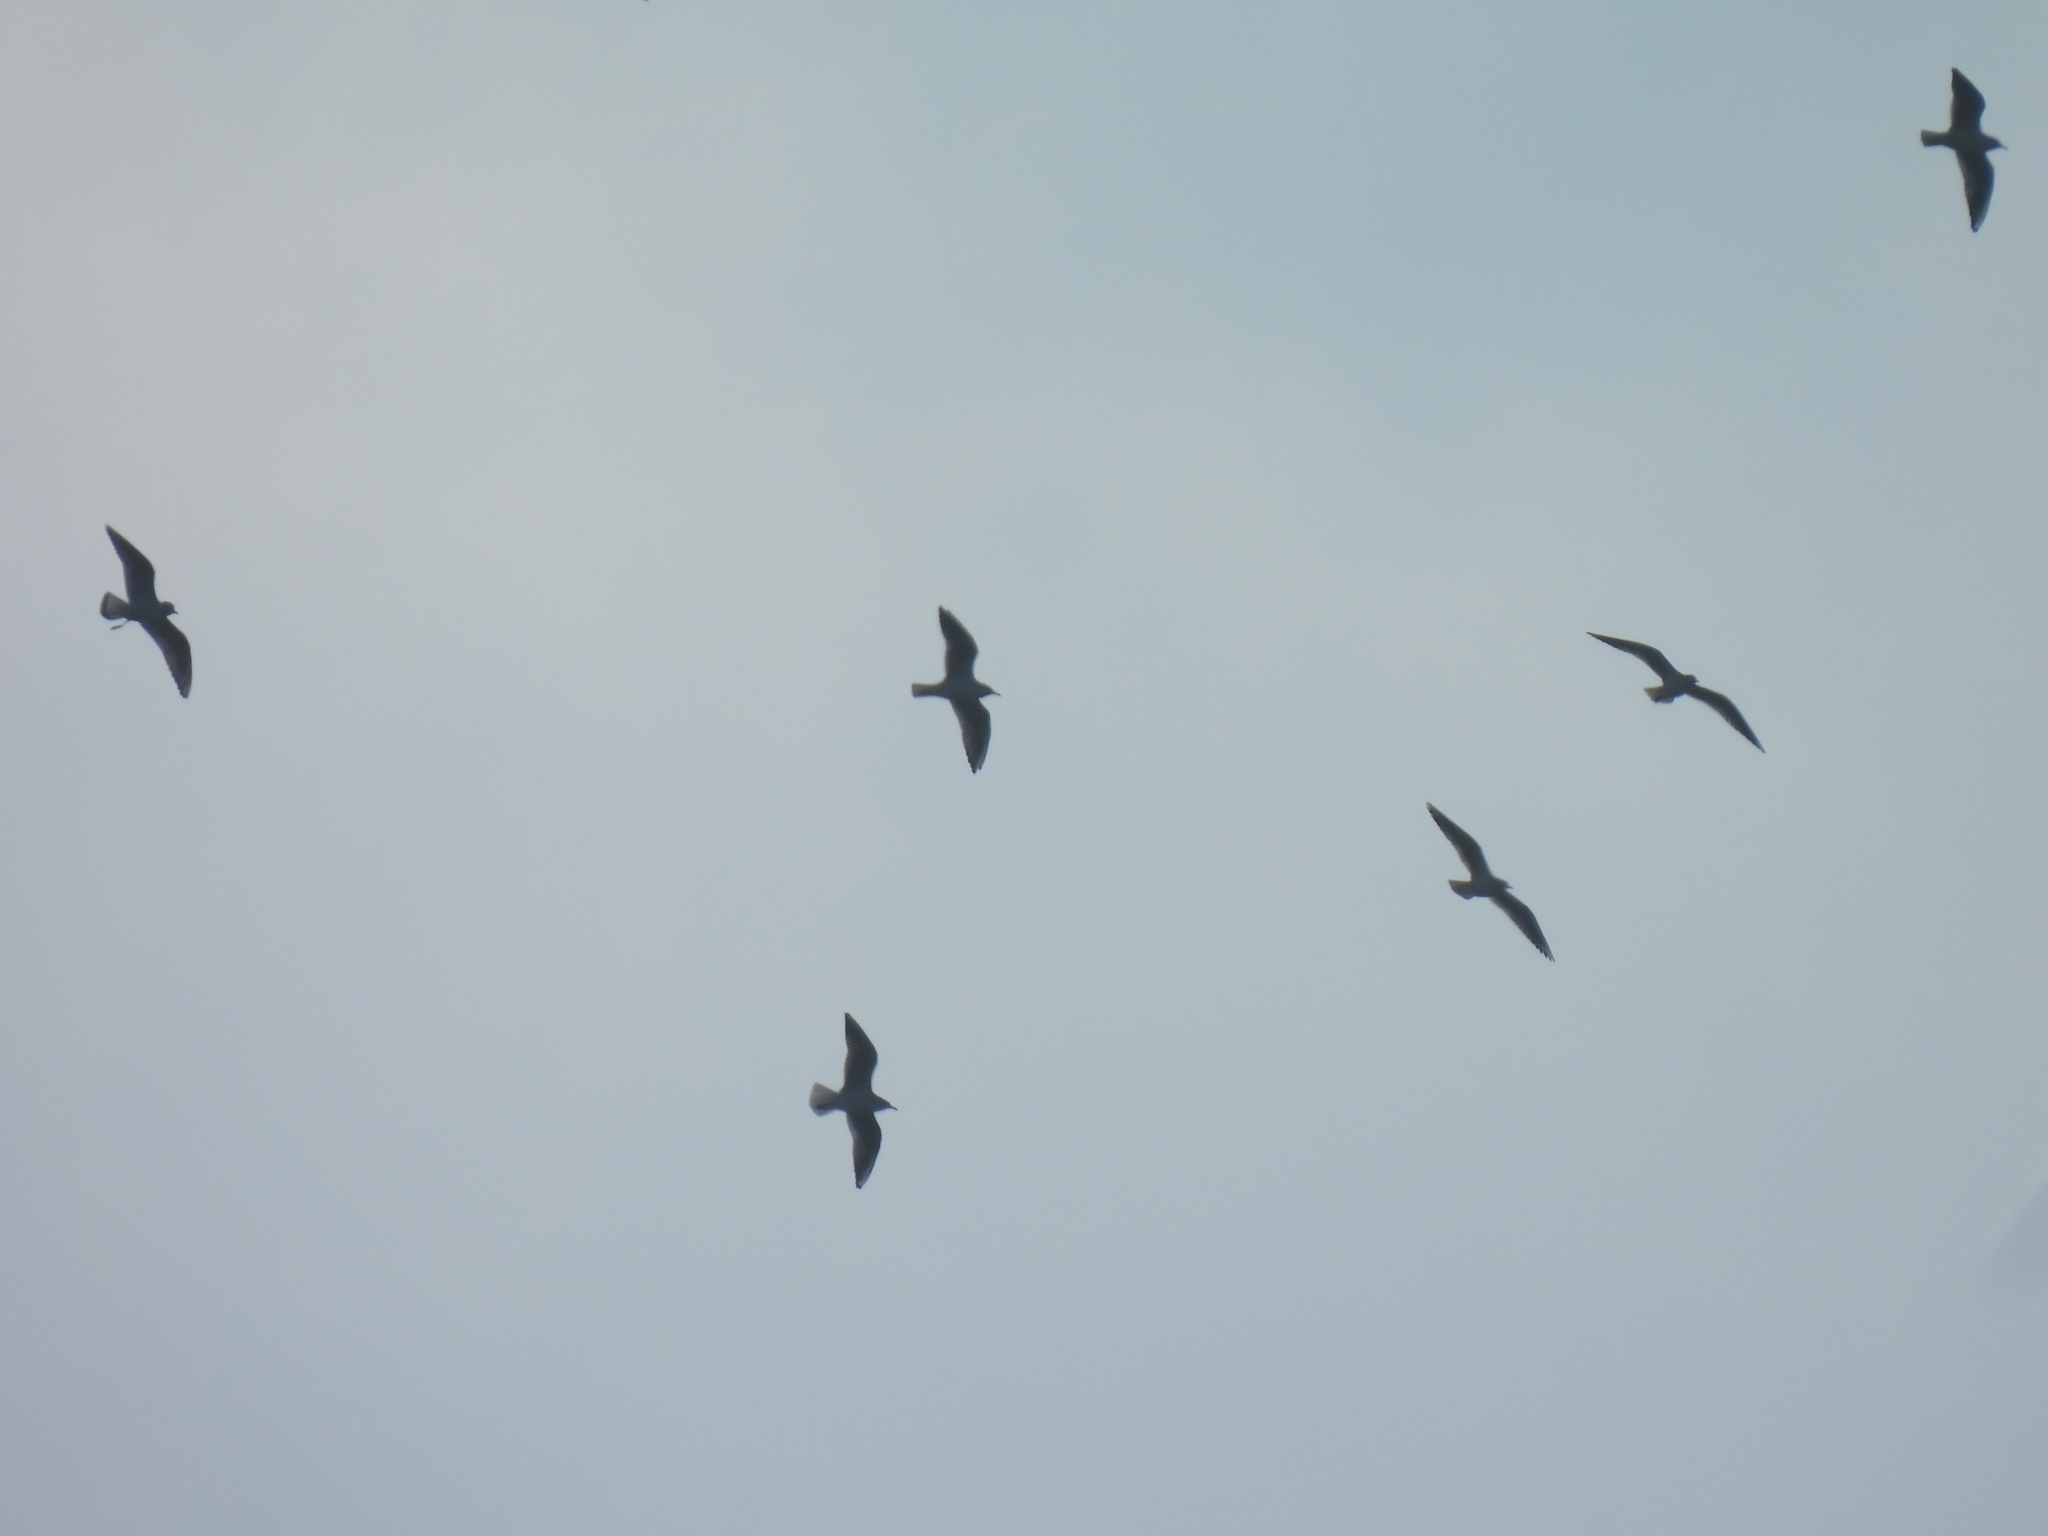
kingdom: Animalia
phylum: Chordata
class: Aves
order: Charadriiformes
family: Laridae
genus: Chroicocephalus
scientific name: Chroicocephalus ridibundus
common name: Black-headed gull
